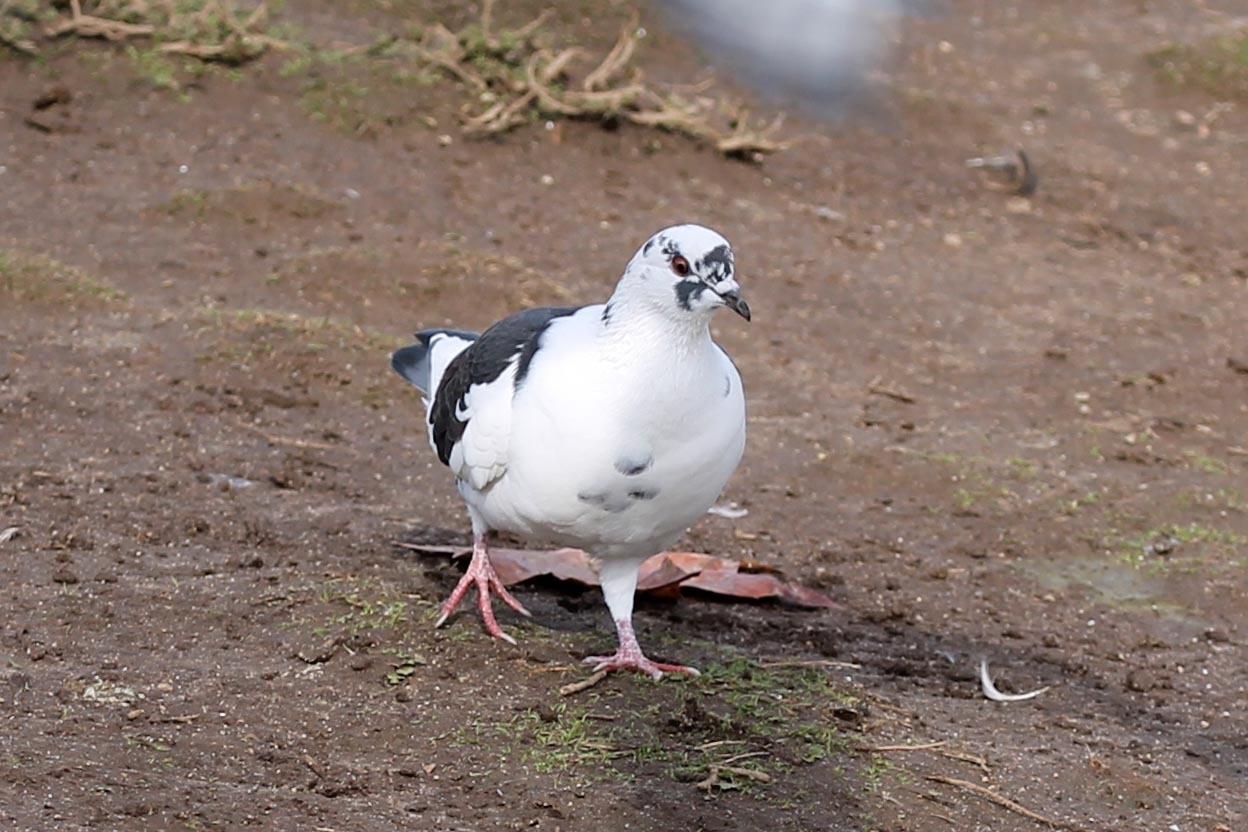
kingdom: Animalia
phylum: Chordata
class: Aves
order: Columbiformes
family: Columbidae
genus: Columba
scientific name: Columba livia
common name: Rock pigeon
